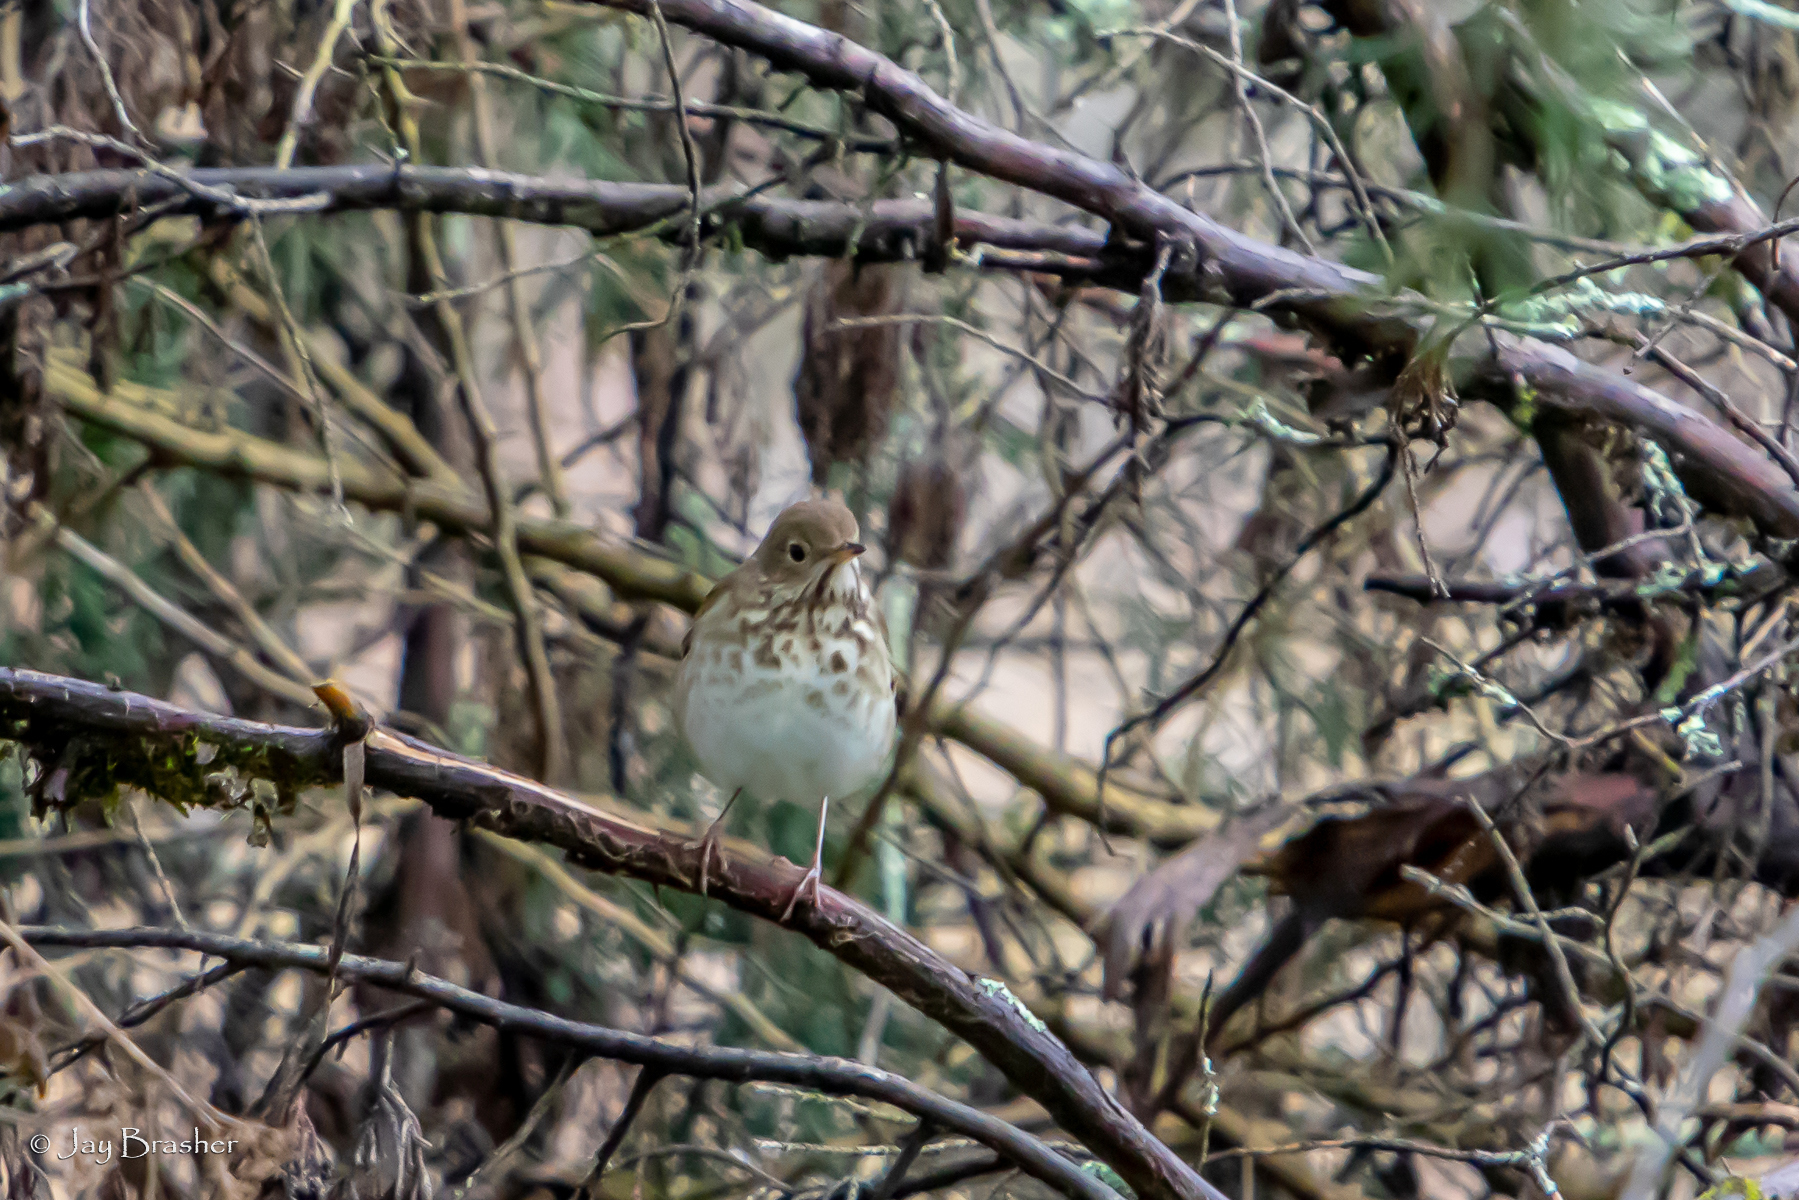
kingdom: Animalia
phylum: Chordata
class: Aves
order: Passeriformes
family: Turdidae
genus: Catharus
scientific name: Catharus guttatus
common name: Hermit thrush
